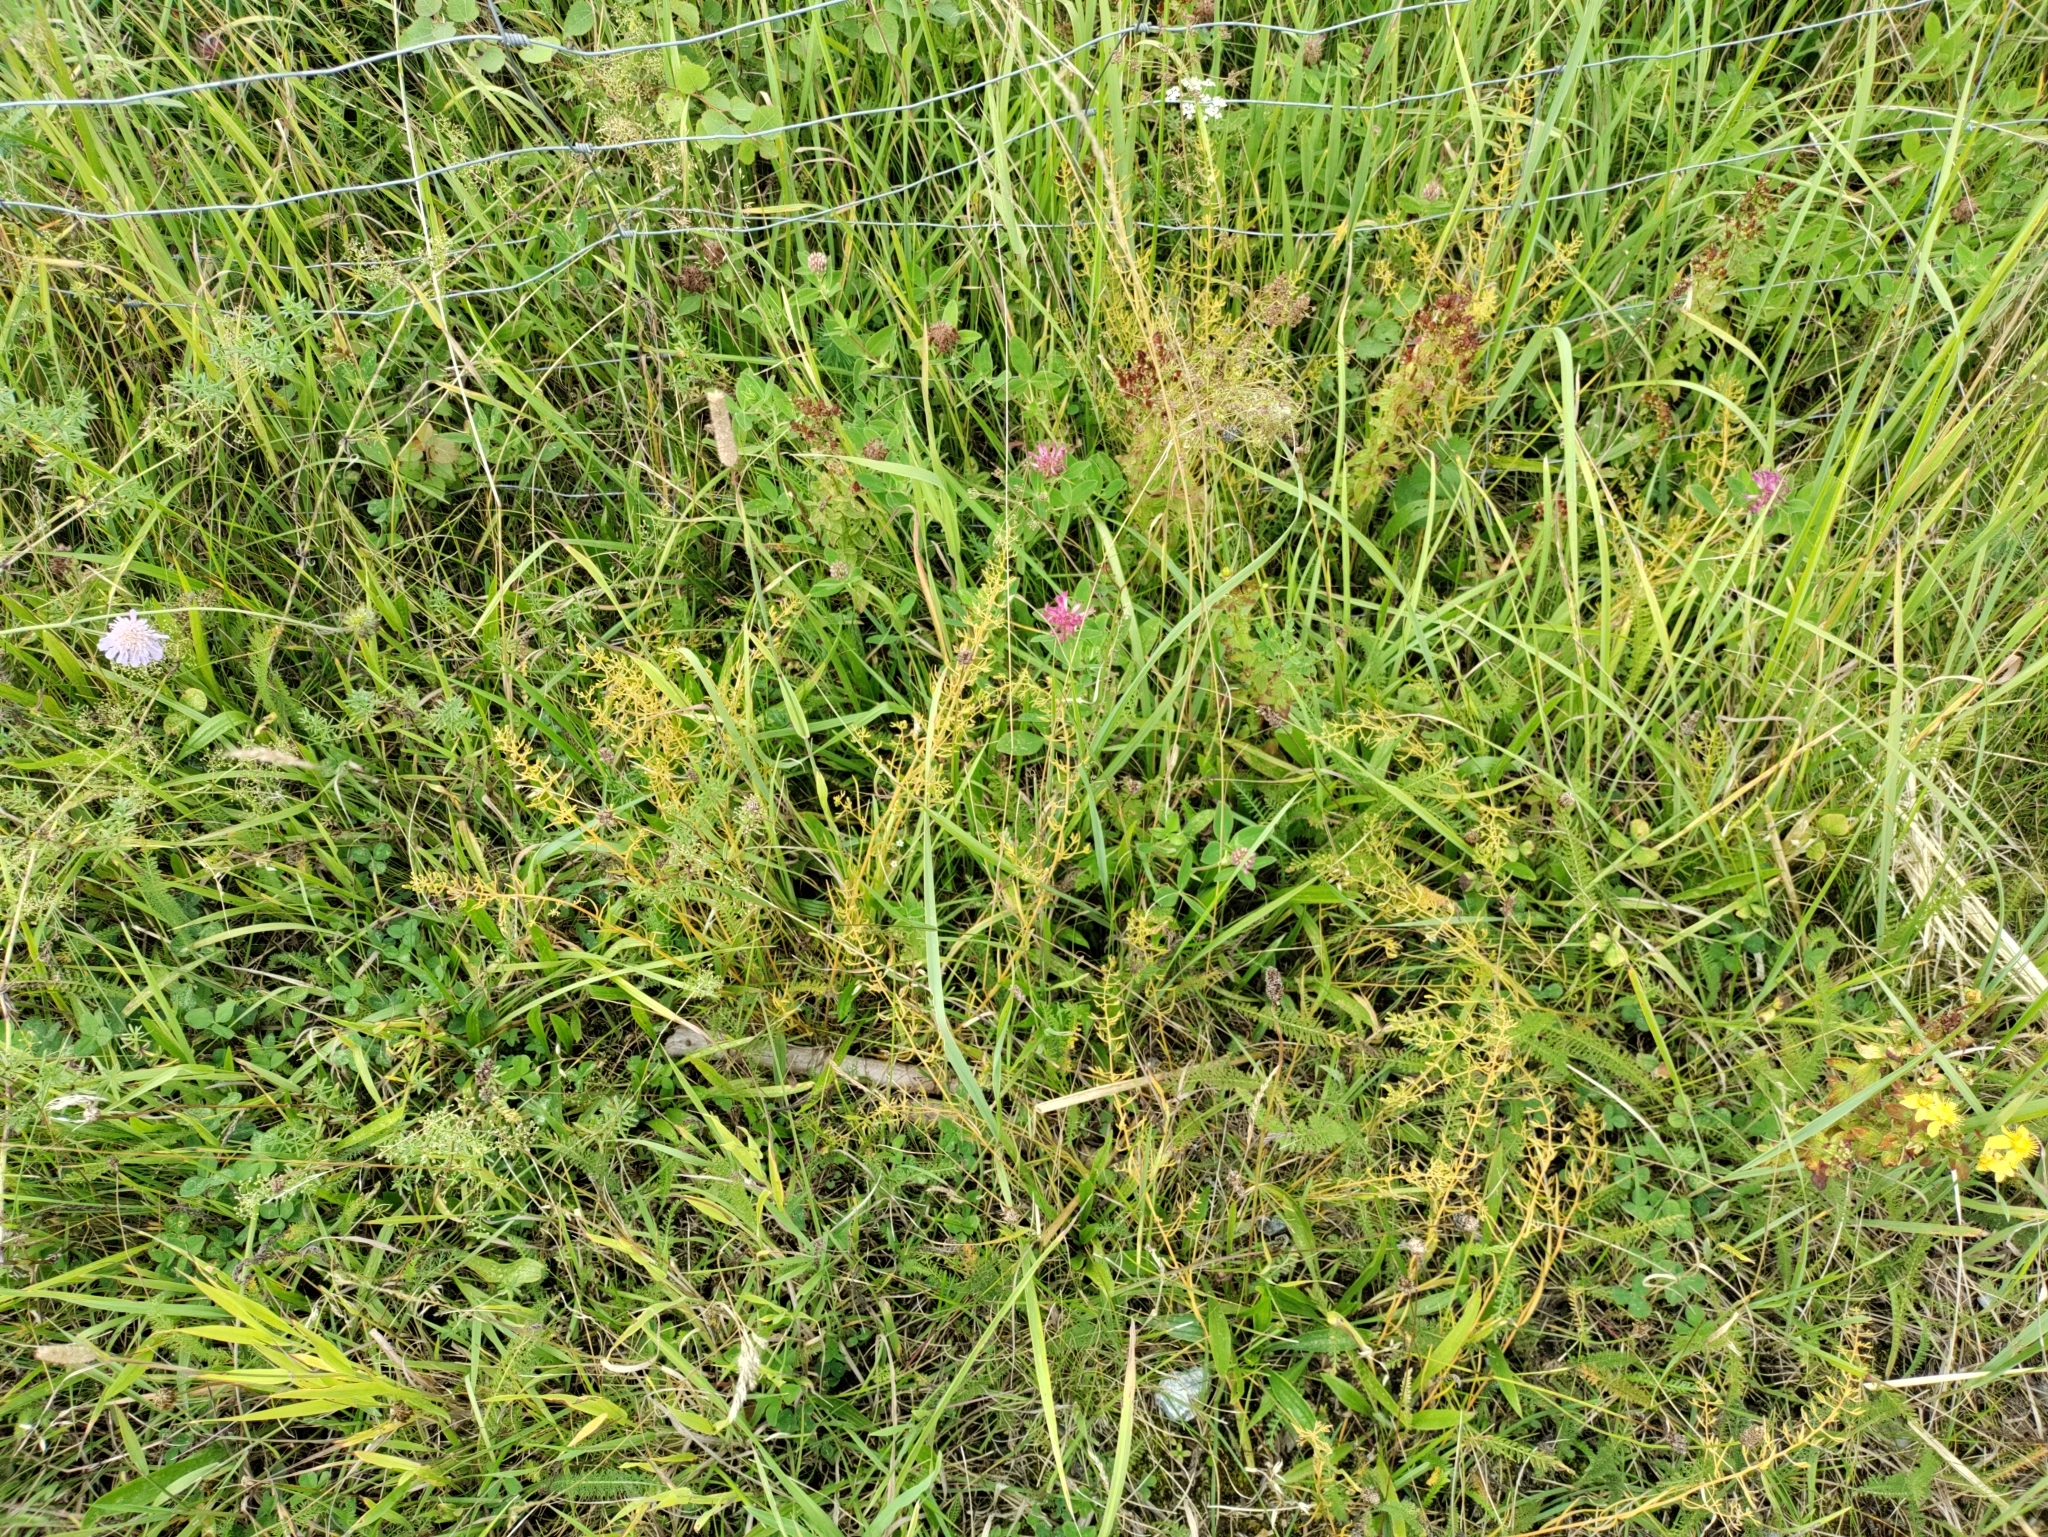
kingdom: Plantae
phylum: Tracheophyta
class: Magnoliopsida
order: Santalales
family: Thesiaceae
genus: Thesium
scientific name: Thesium pyrenaicum
